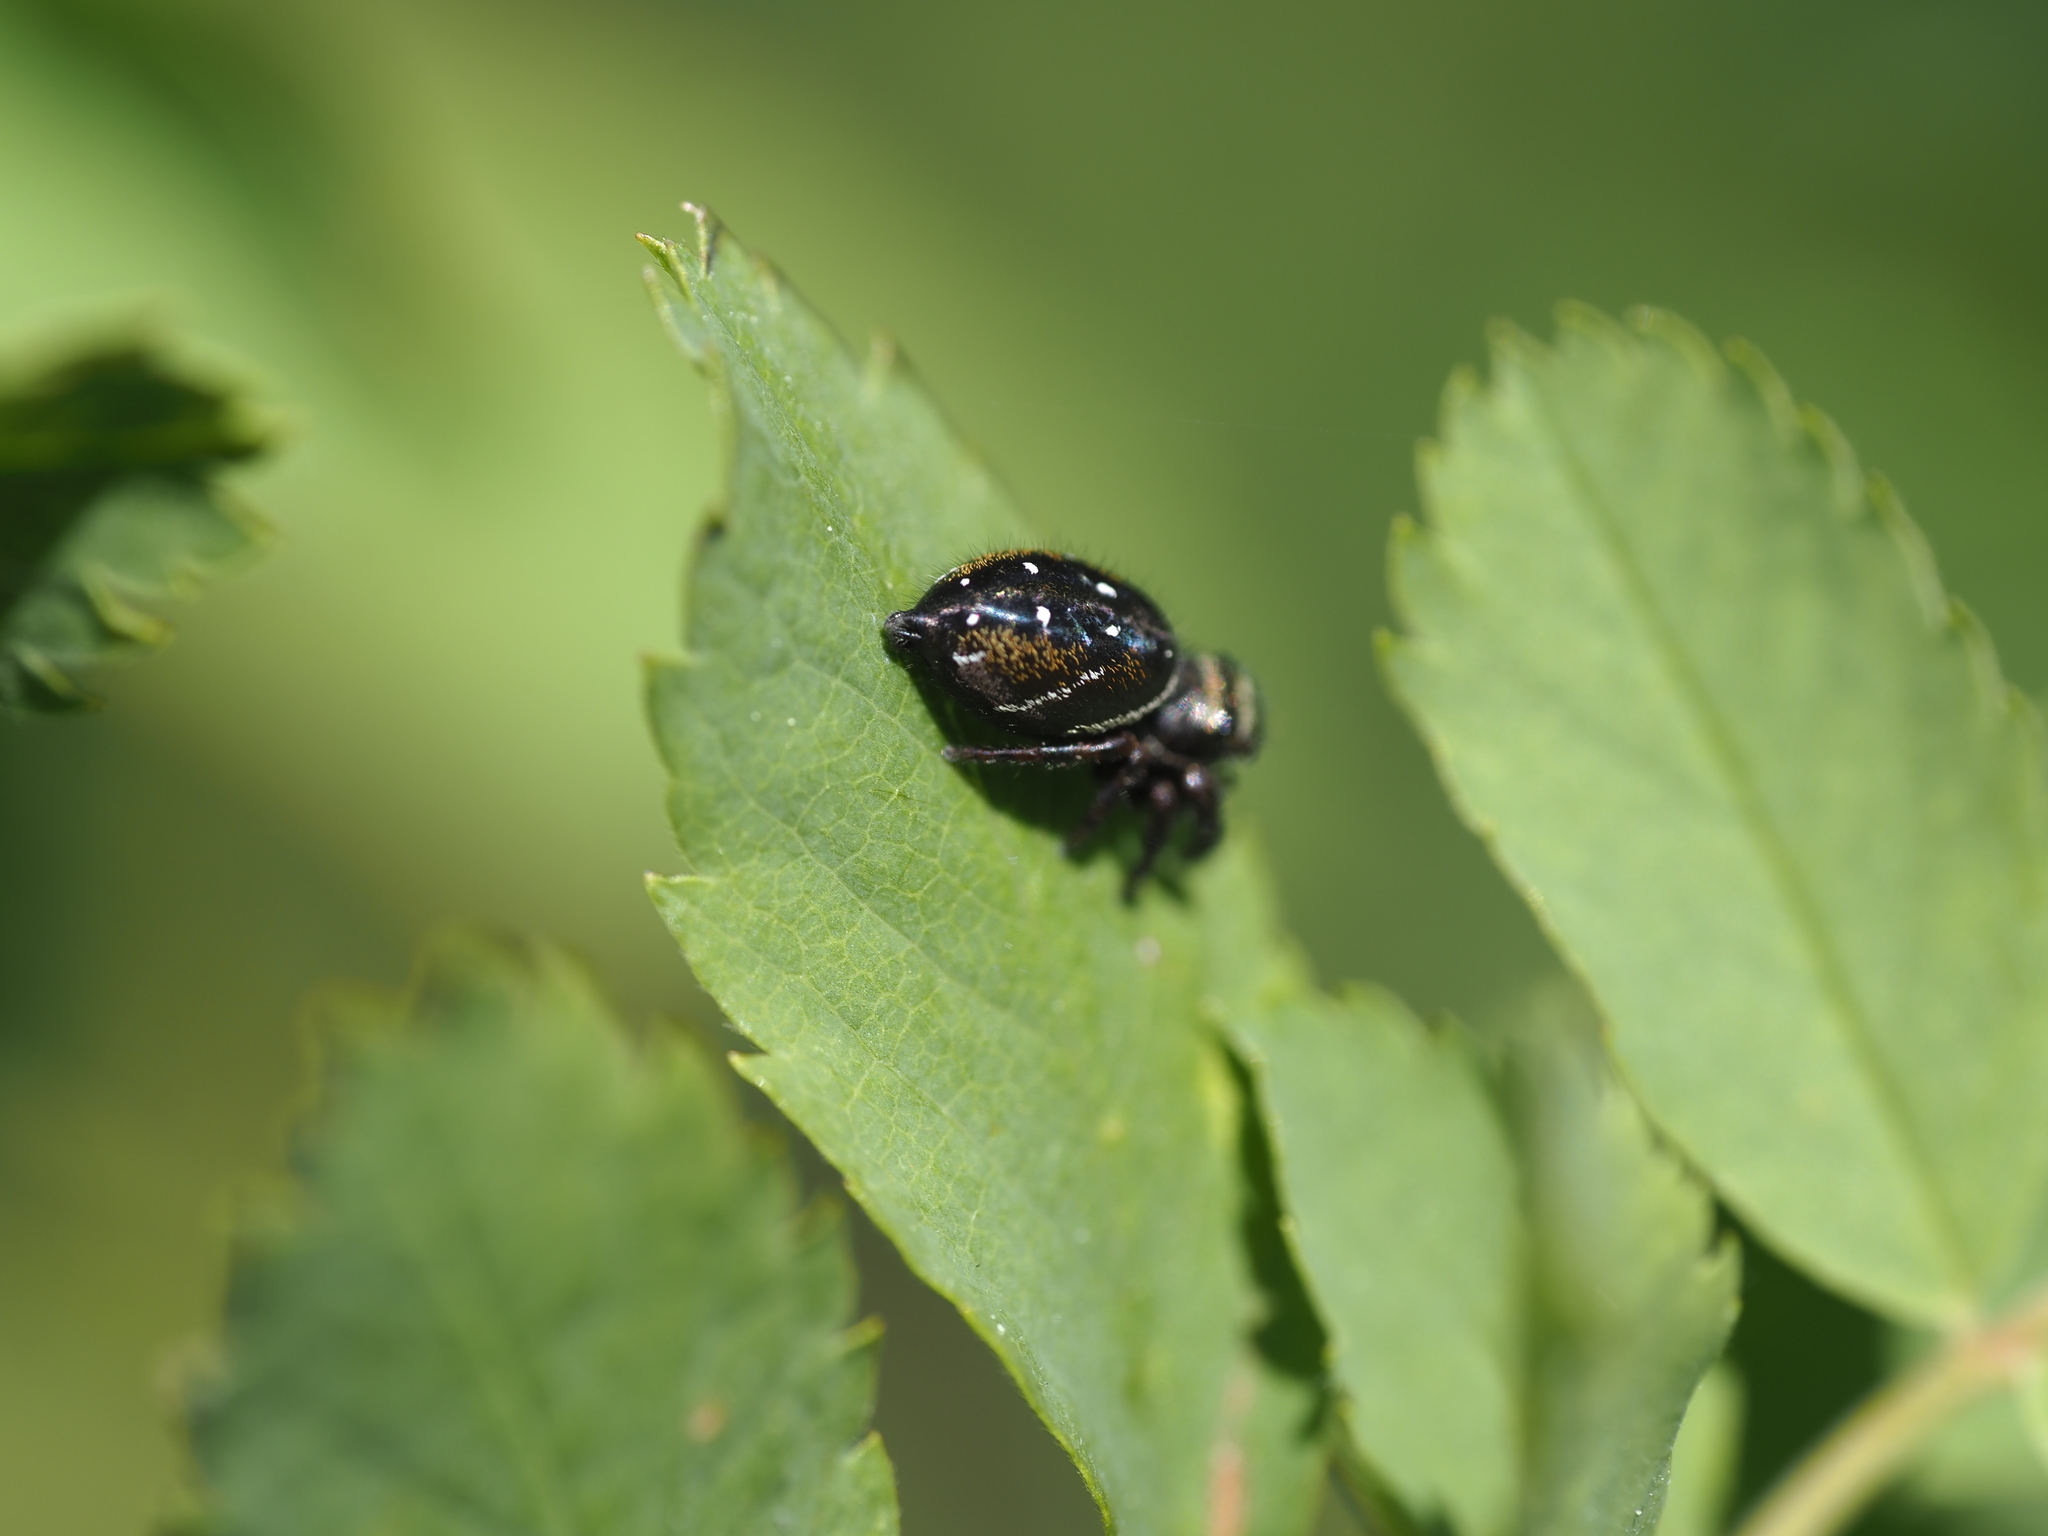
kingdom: Animalia
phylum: Arthropoda
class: Arachnida
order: Araneae
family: Salticidae
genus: Phidippus
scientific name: Phidippus clarus
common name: Brilliant jumping spider
